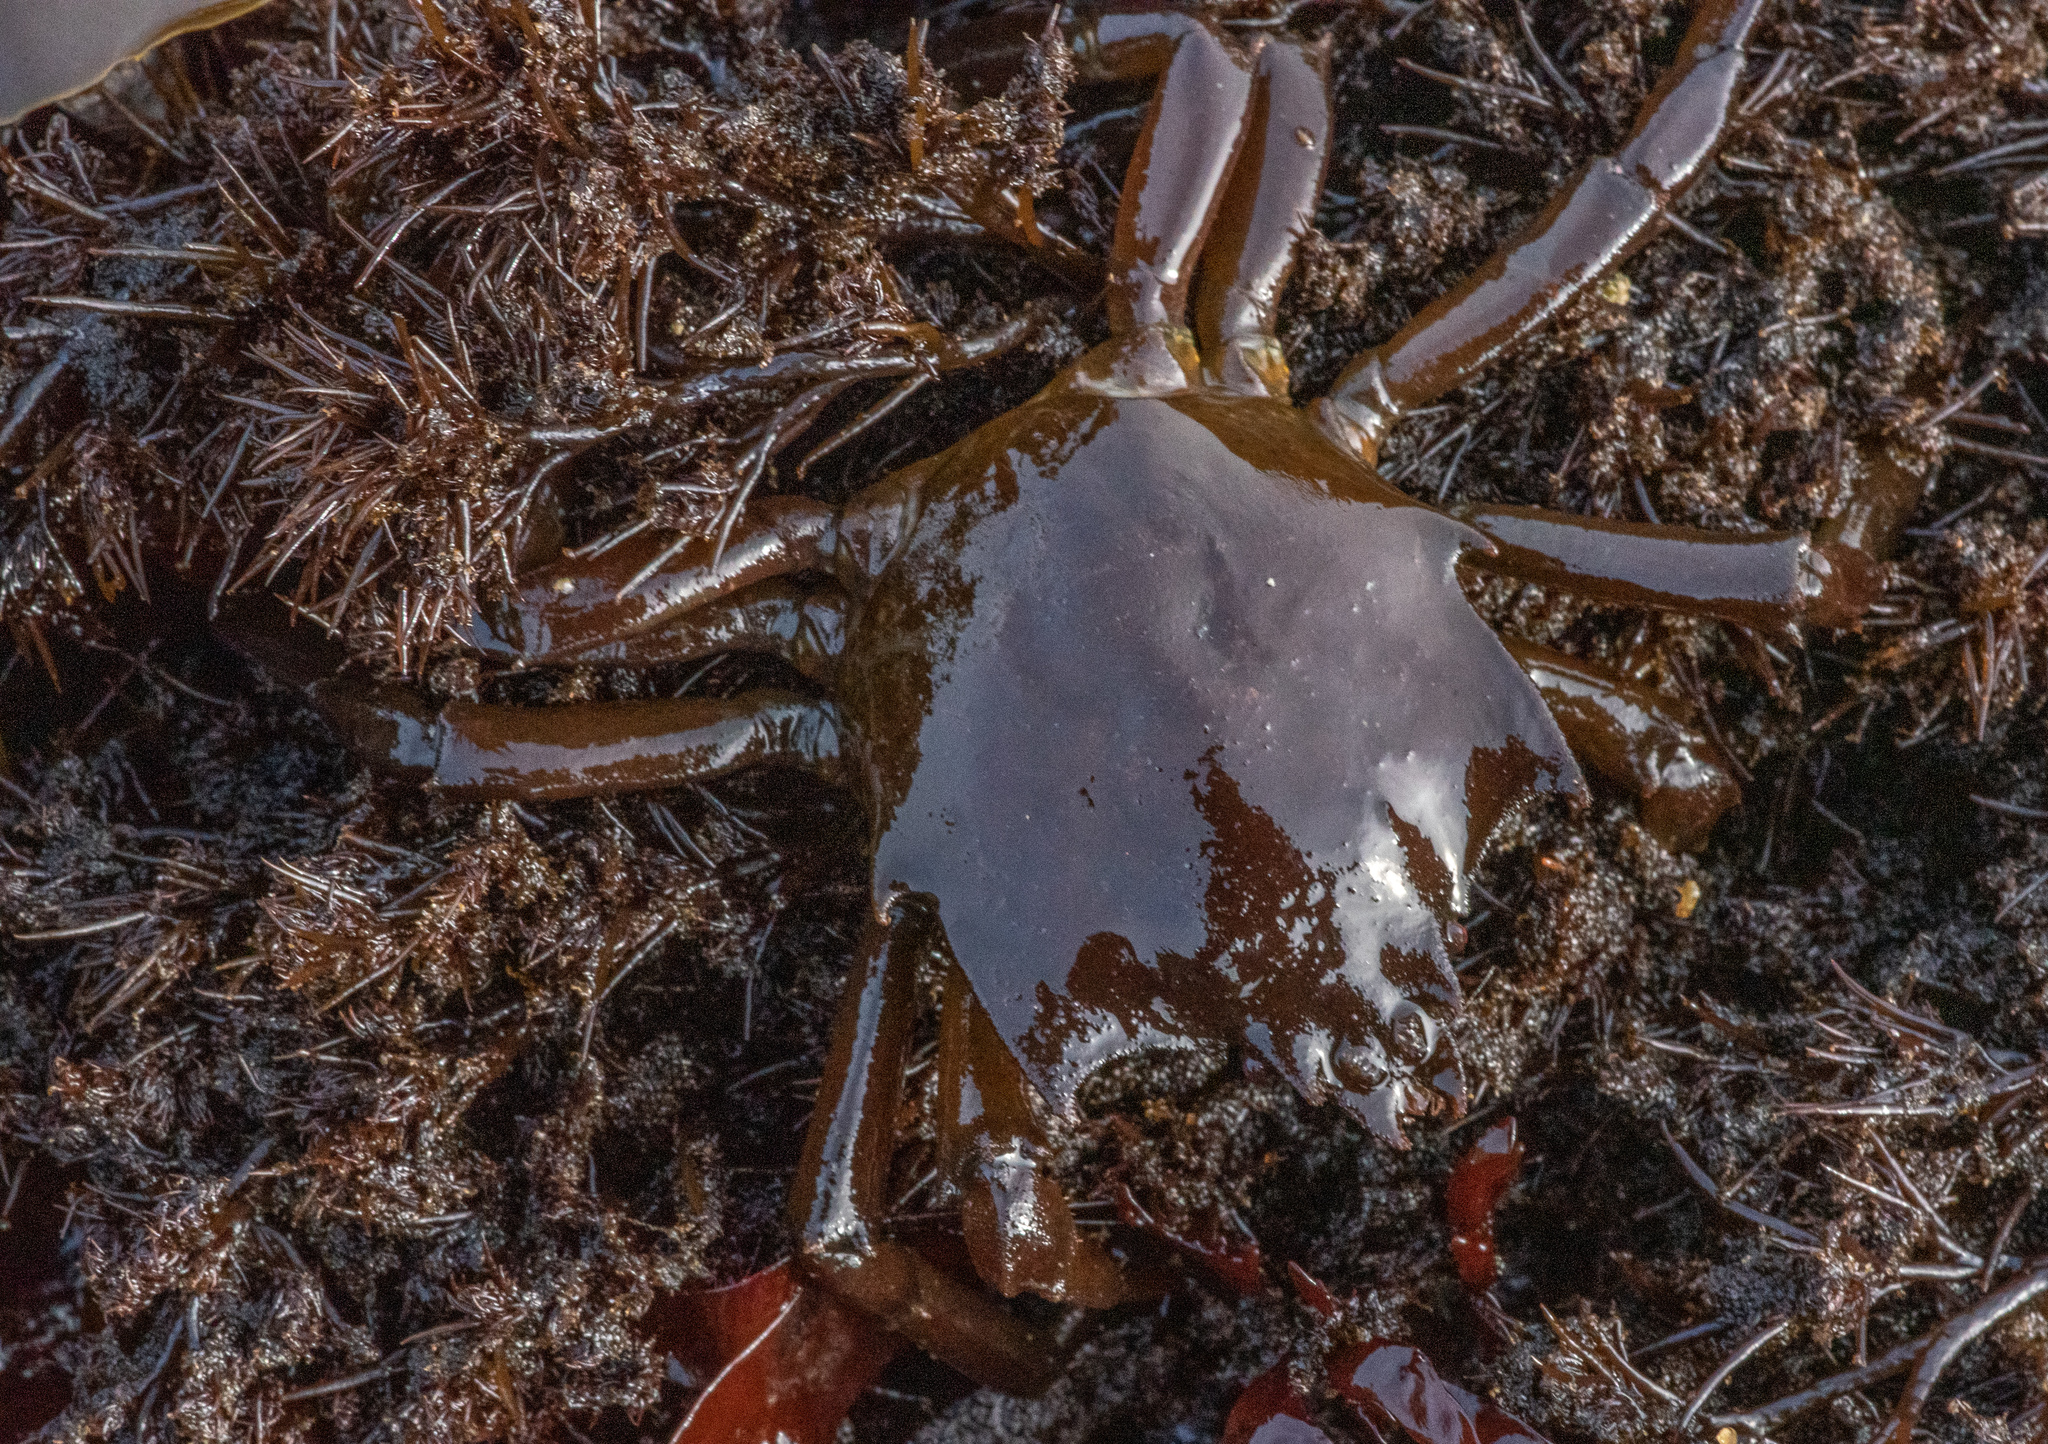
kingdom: Animalia
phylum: Arthropoda
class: Malacostraca
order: Decapoda
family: Epialtidae
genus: Pugettia
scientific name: Pugettia producta
